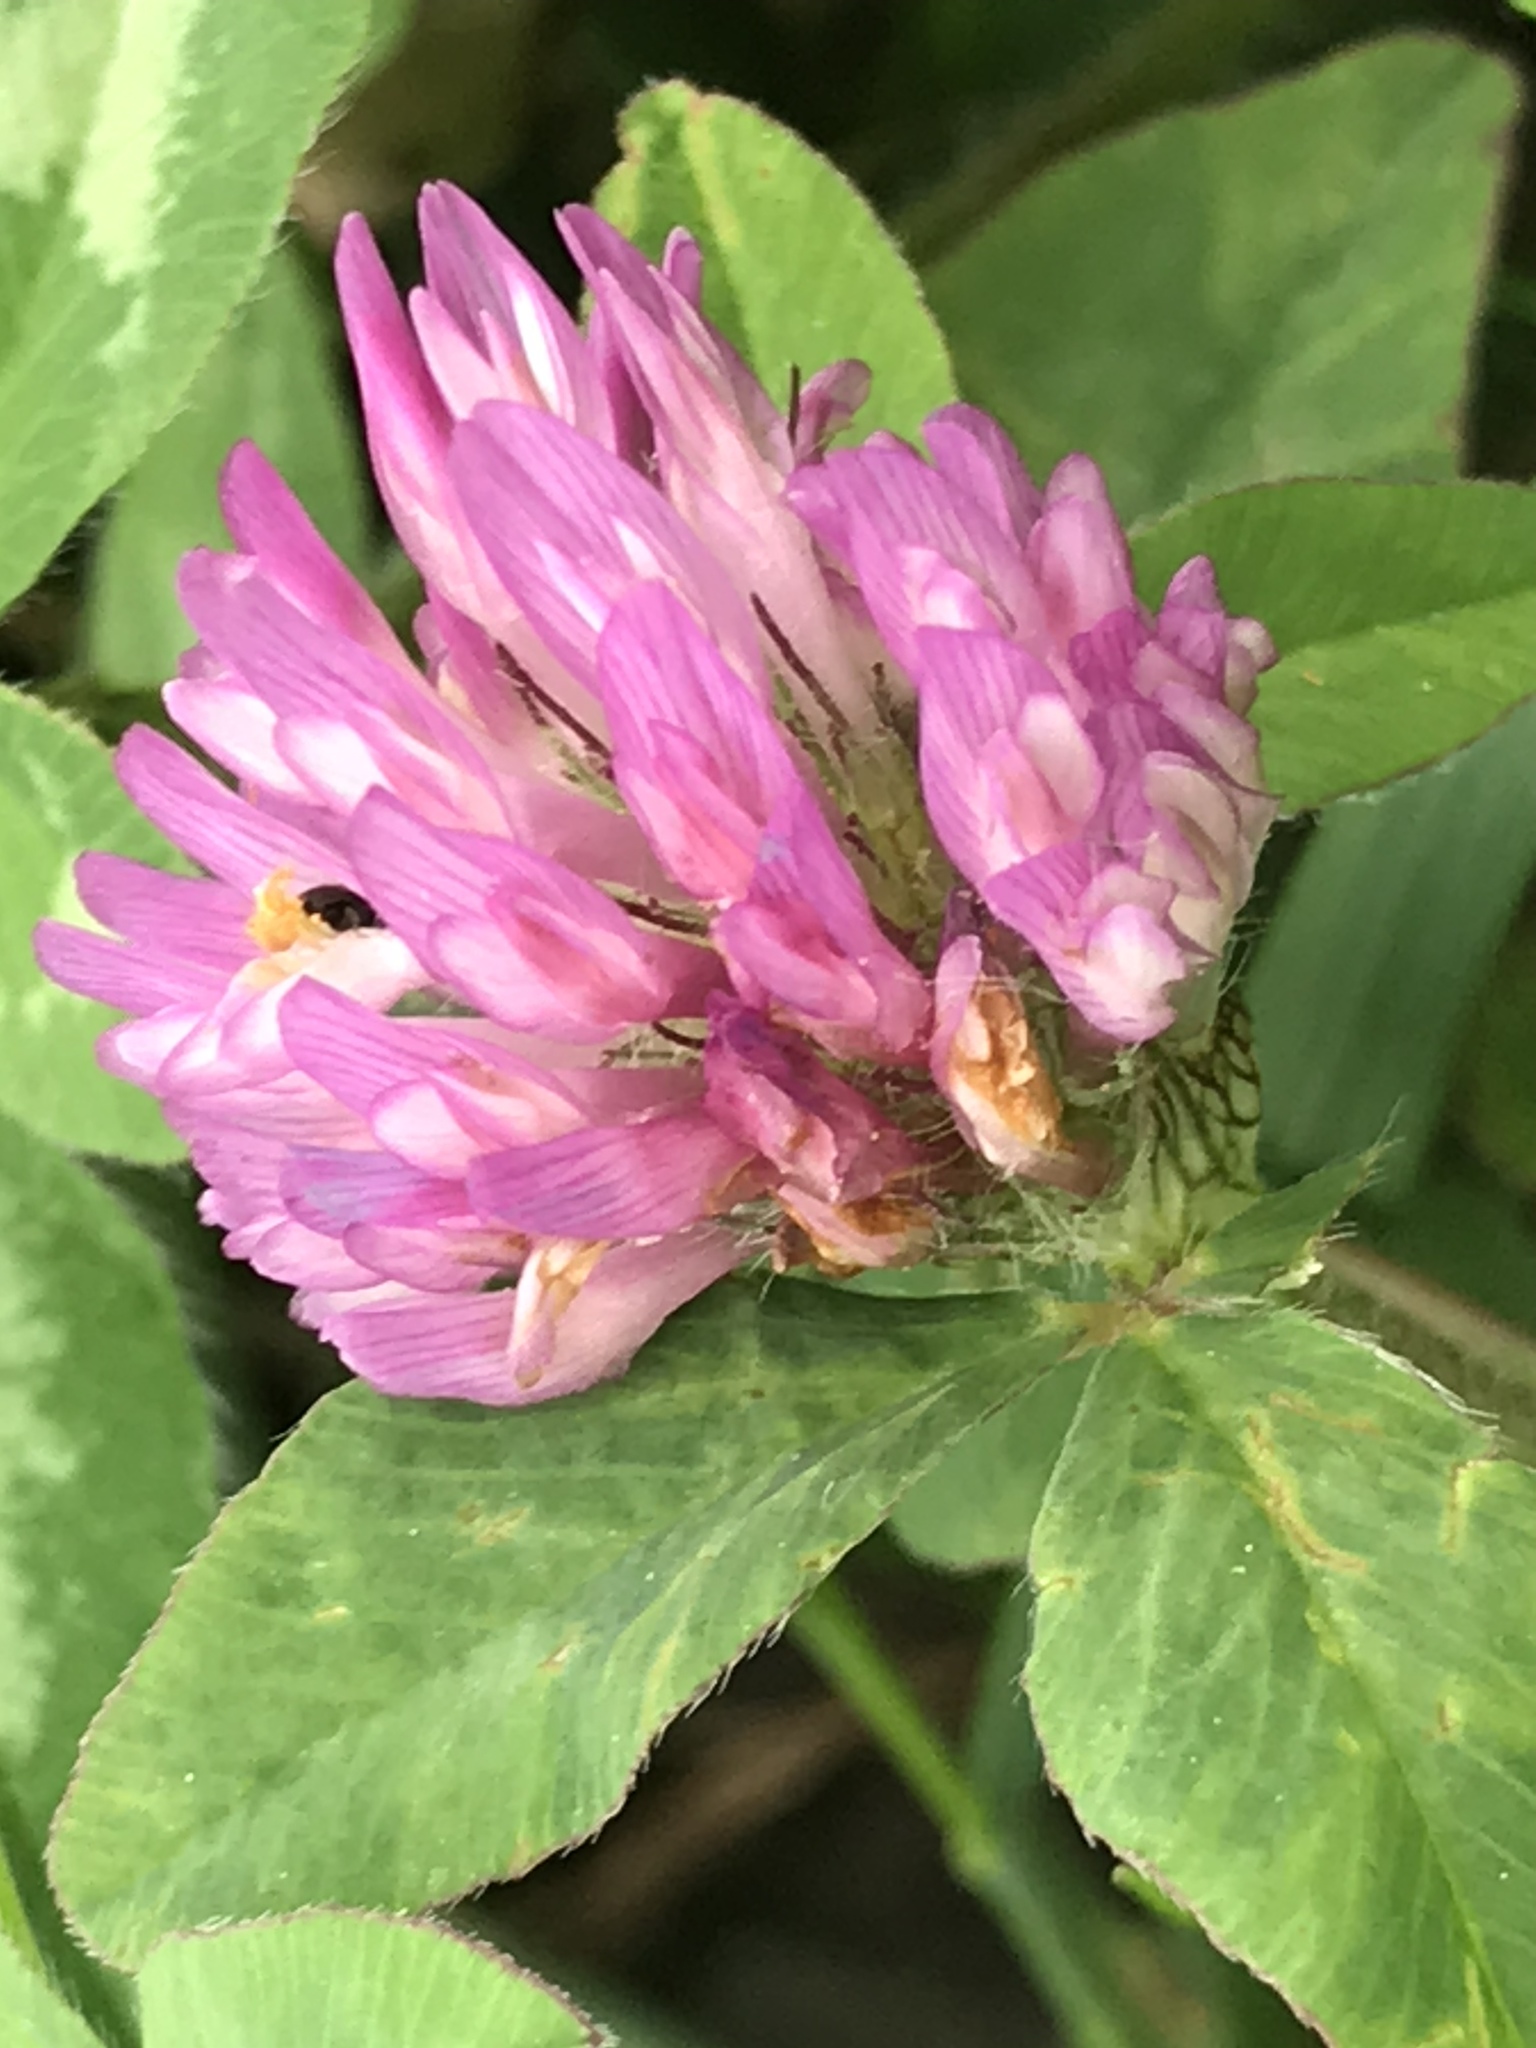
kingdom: Plantae
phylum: Tracheophyta
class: Magnoliopsida
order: Fabales
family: Fabaceae
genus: Trifolium
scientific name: Trifolium pratense
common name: Red clover
